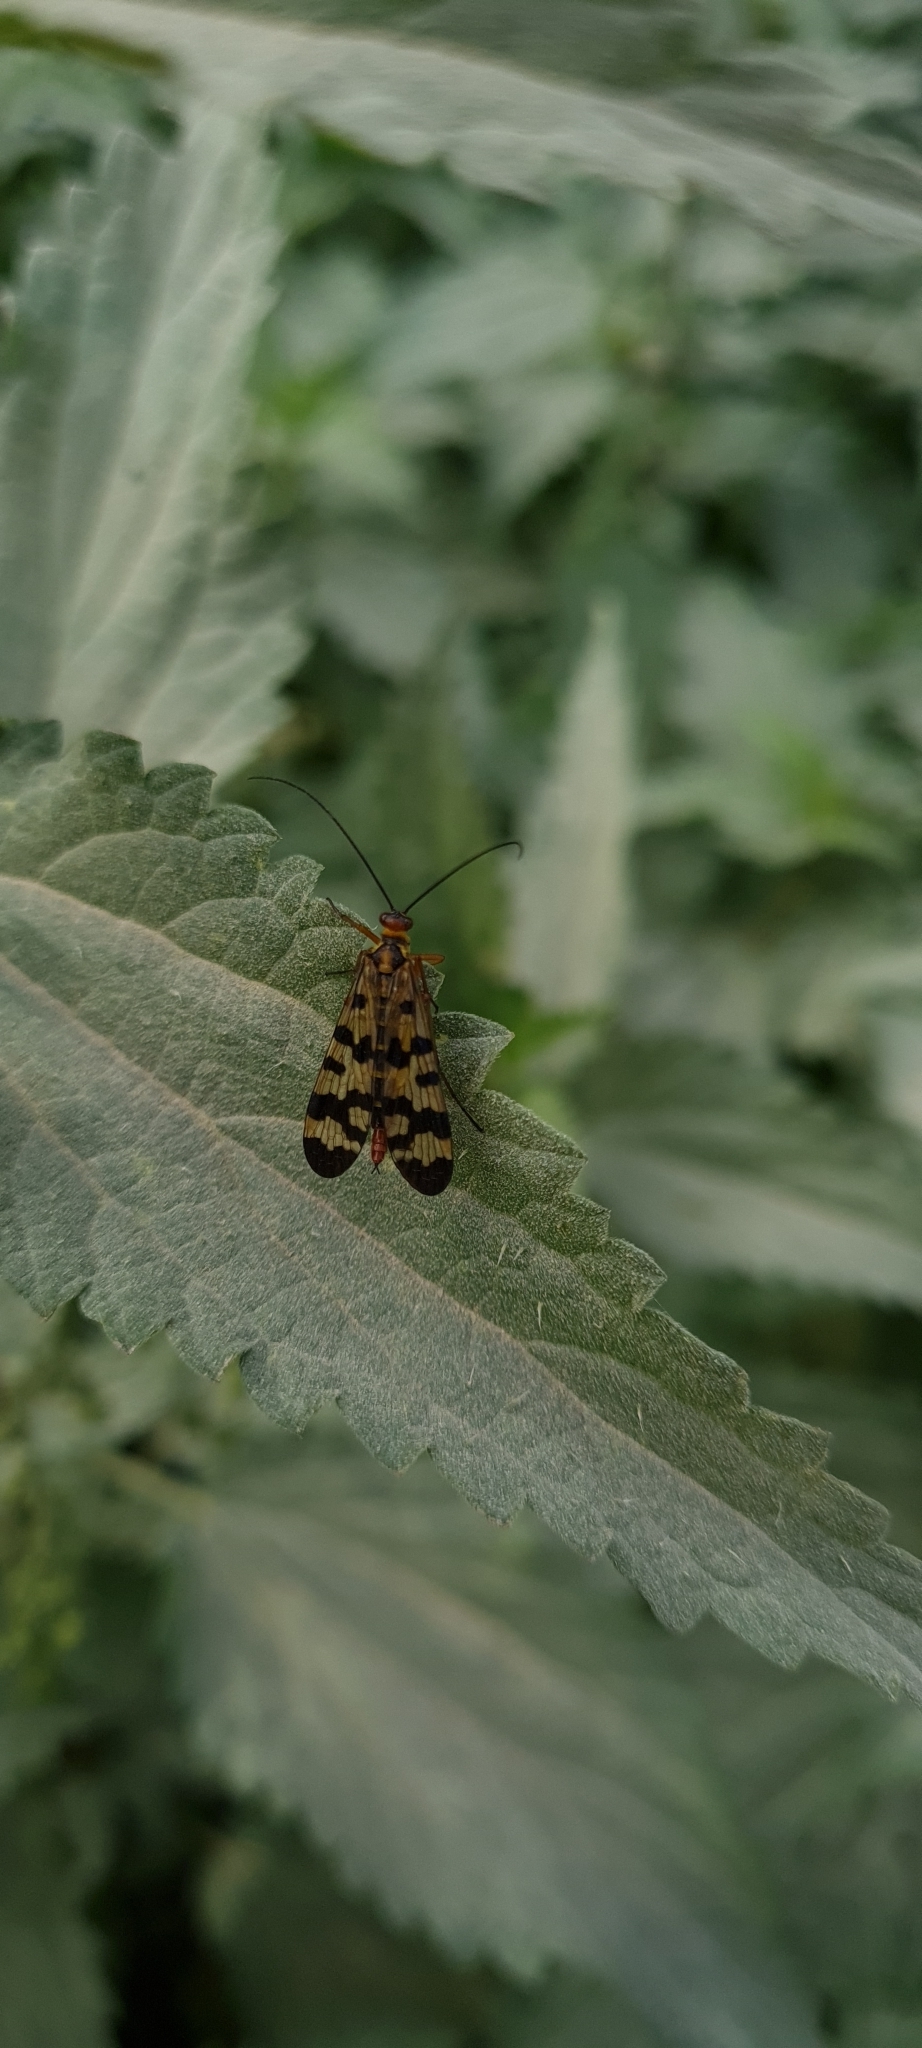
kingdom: Animalia
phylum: Arthropoda
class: Insecta
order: Mecoptera
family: Panorpidae
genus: Panorpa
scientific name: Panorpa meridionalis
